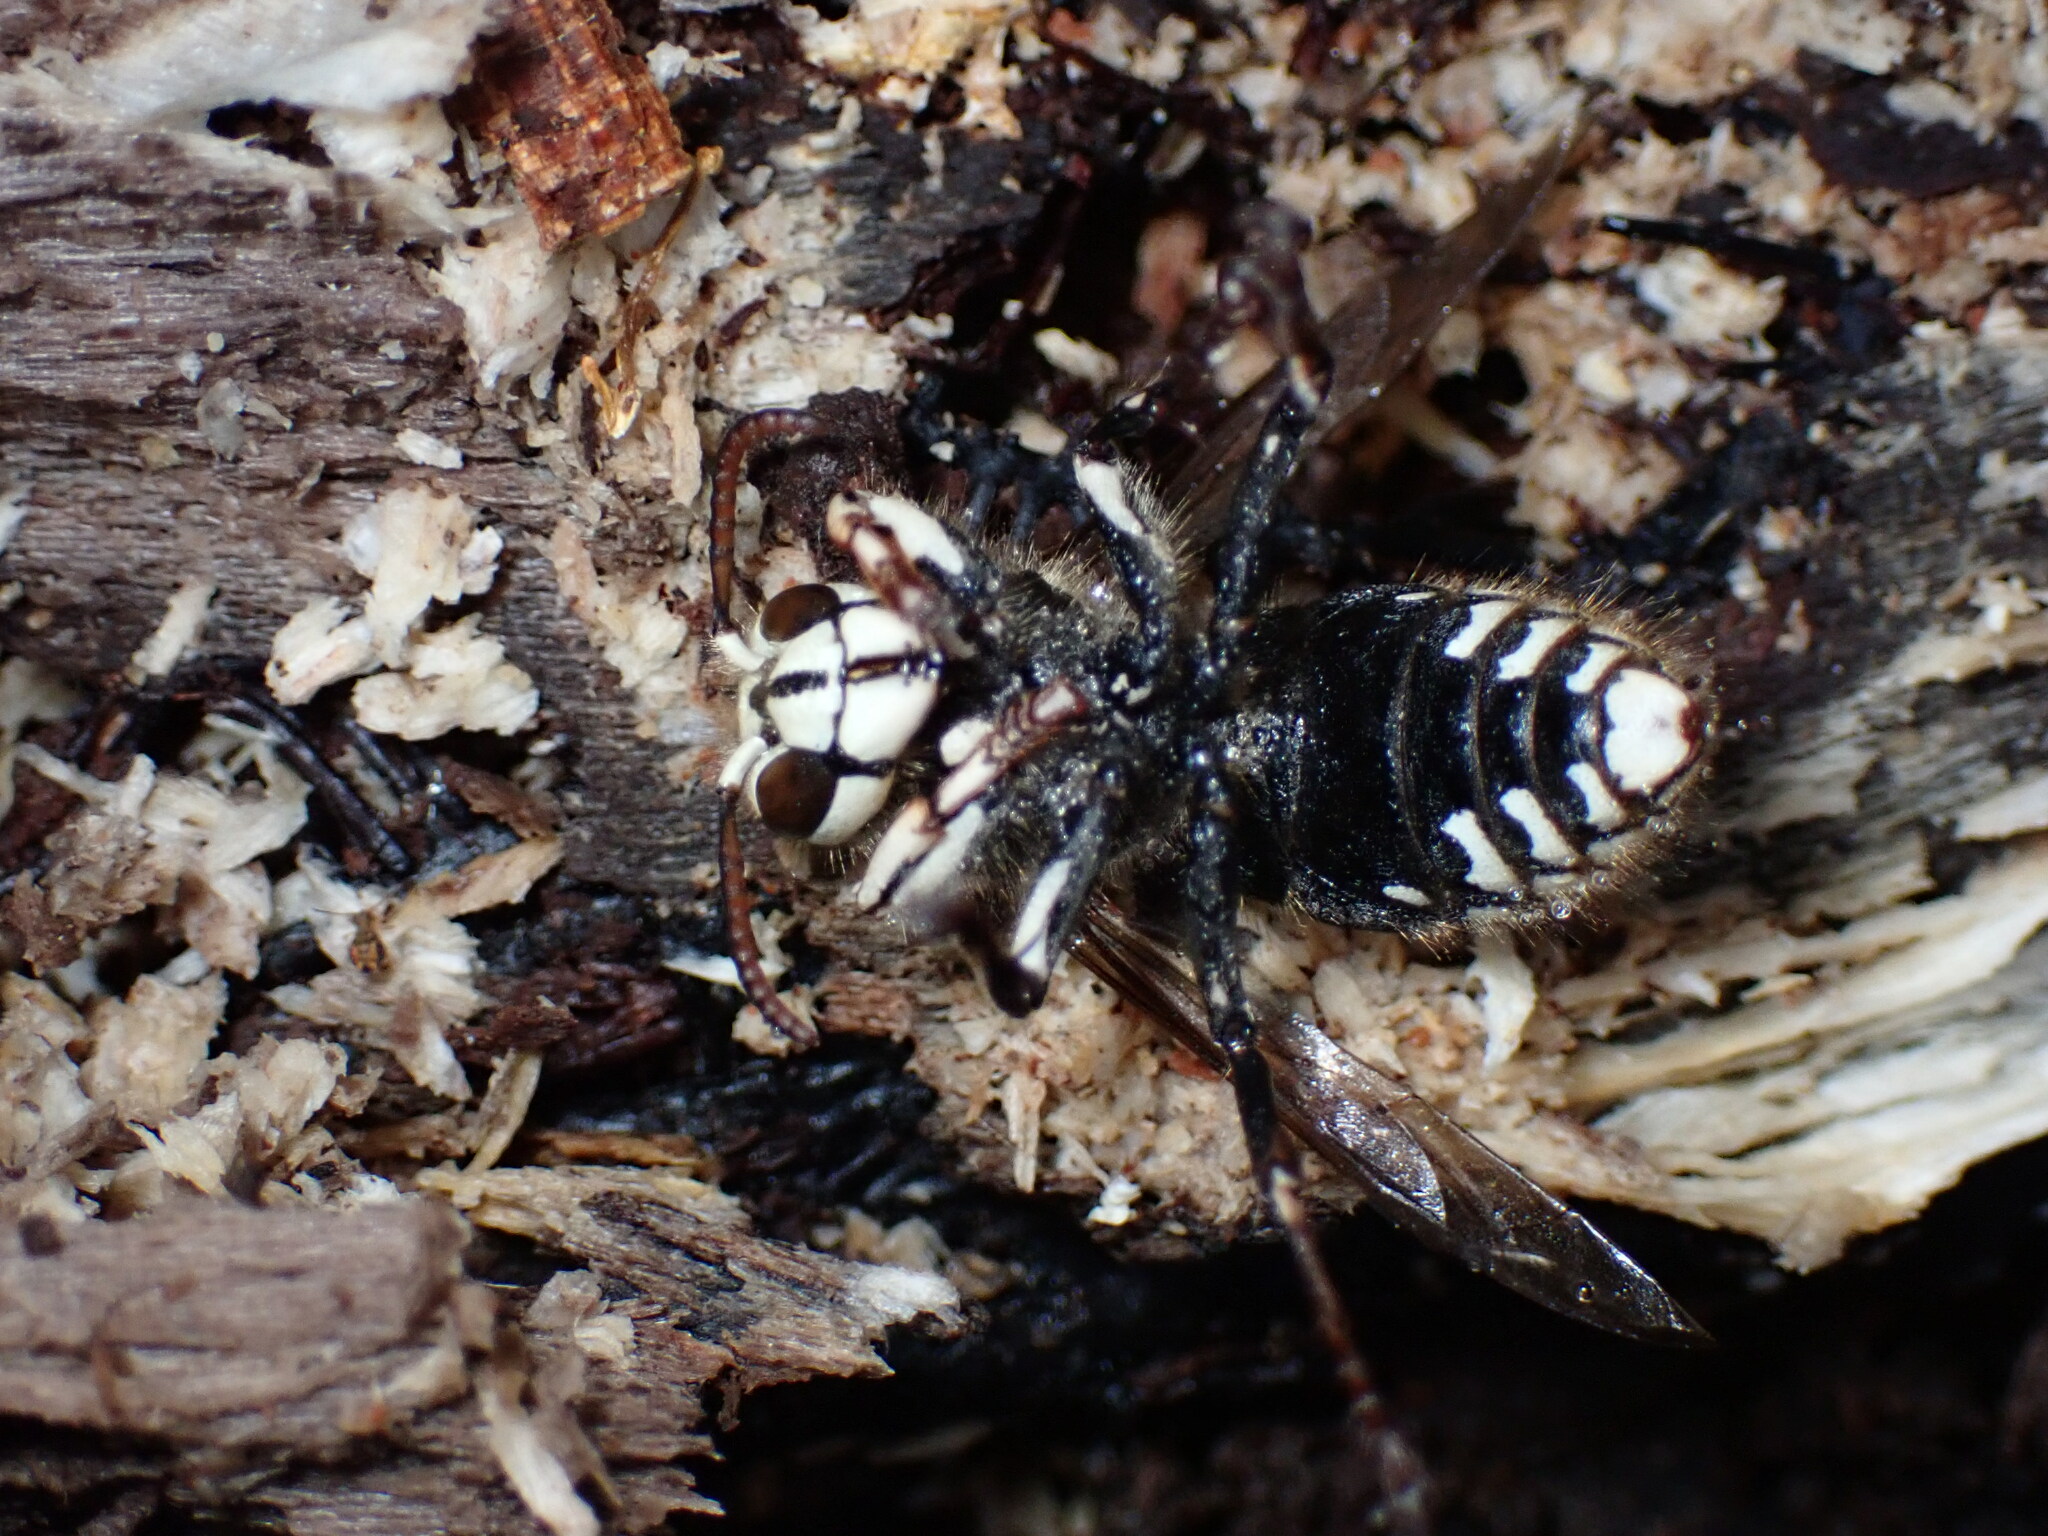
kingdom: Animalia
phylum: Arthropoda
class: Insecta
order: Hymenoptera
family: Vespidae
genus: Dolichovespula
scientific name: Dolichovespula maculata
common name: Bald-faced hornet
